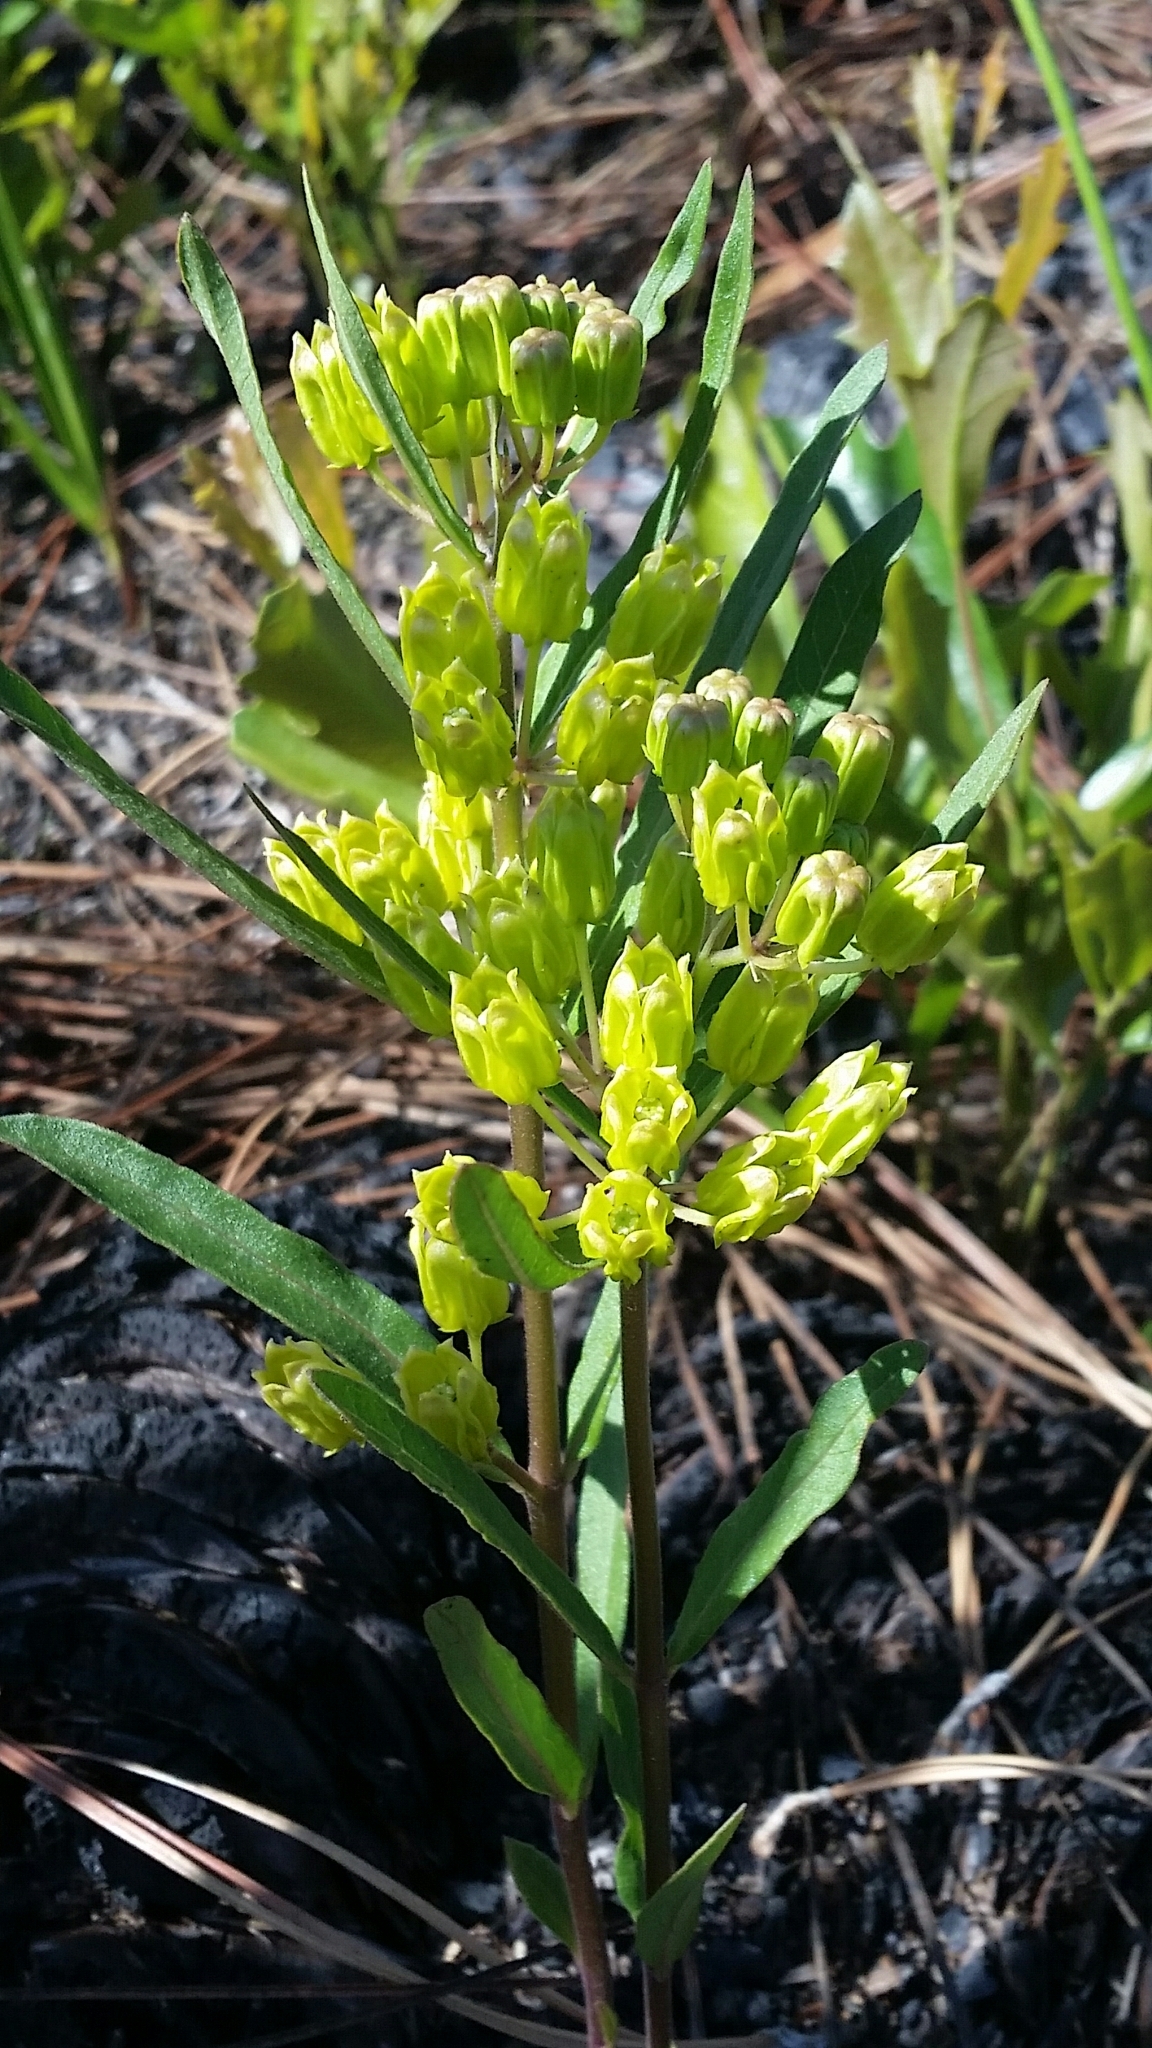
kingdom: Plantae
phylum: Tracheophyta
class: Magnoliopsida
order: Gentianales
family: Apocynaceae
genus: Asclepias
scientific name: Asclepias pedicellata
